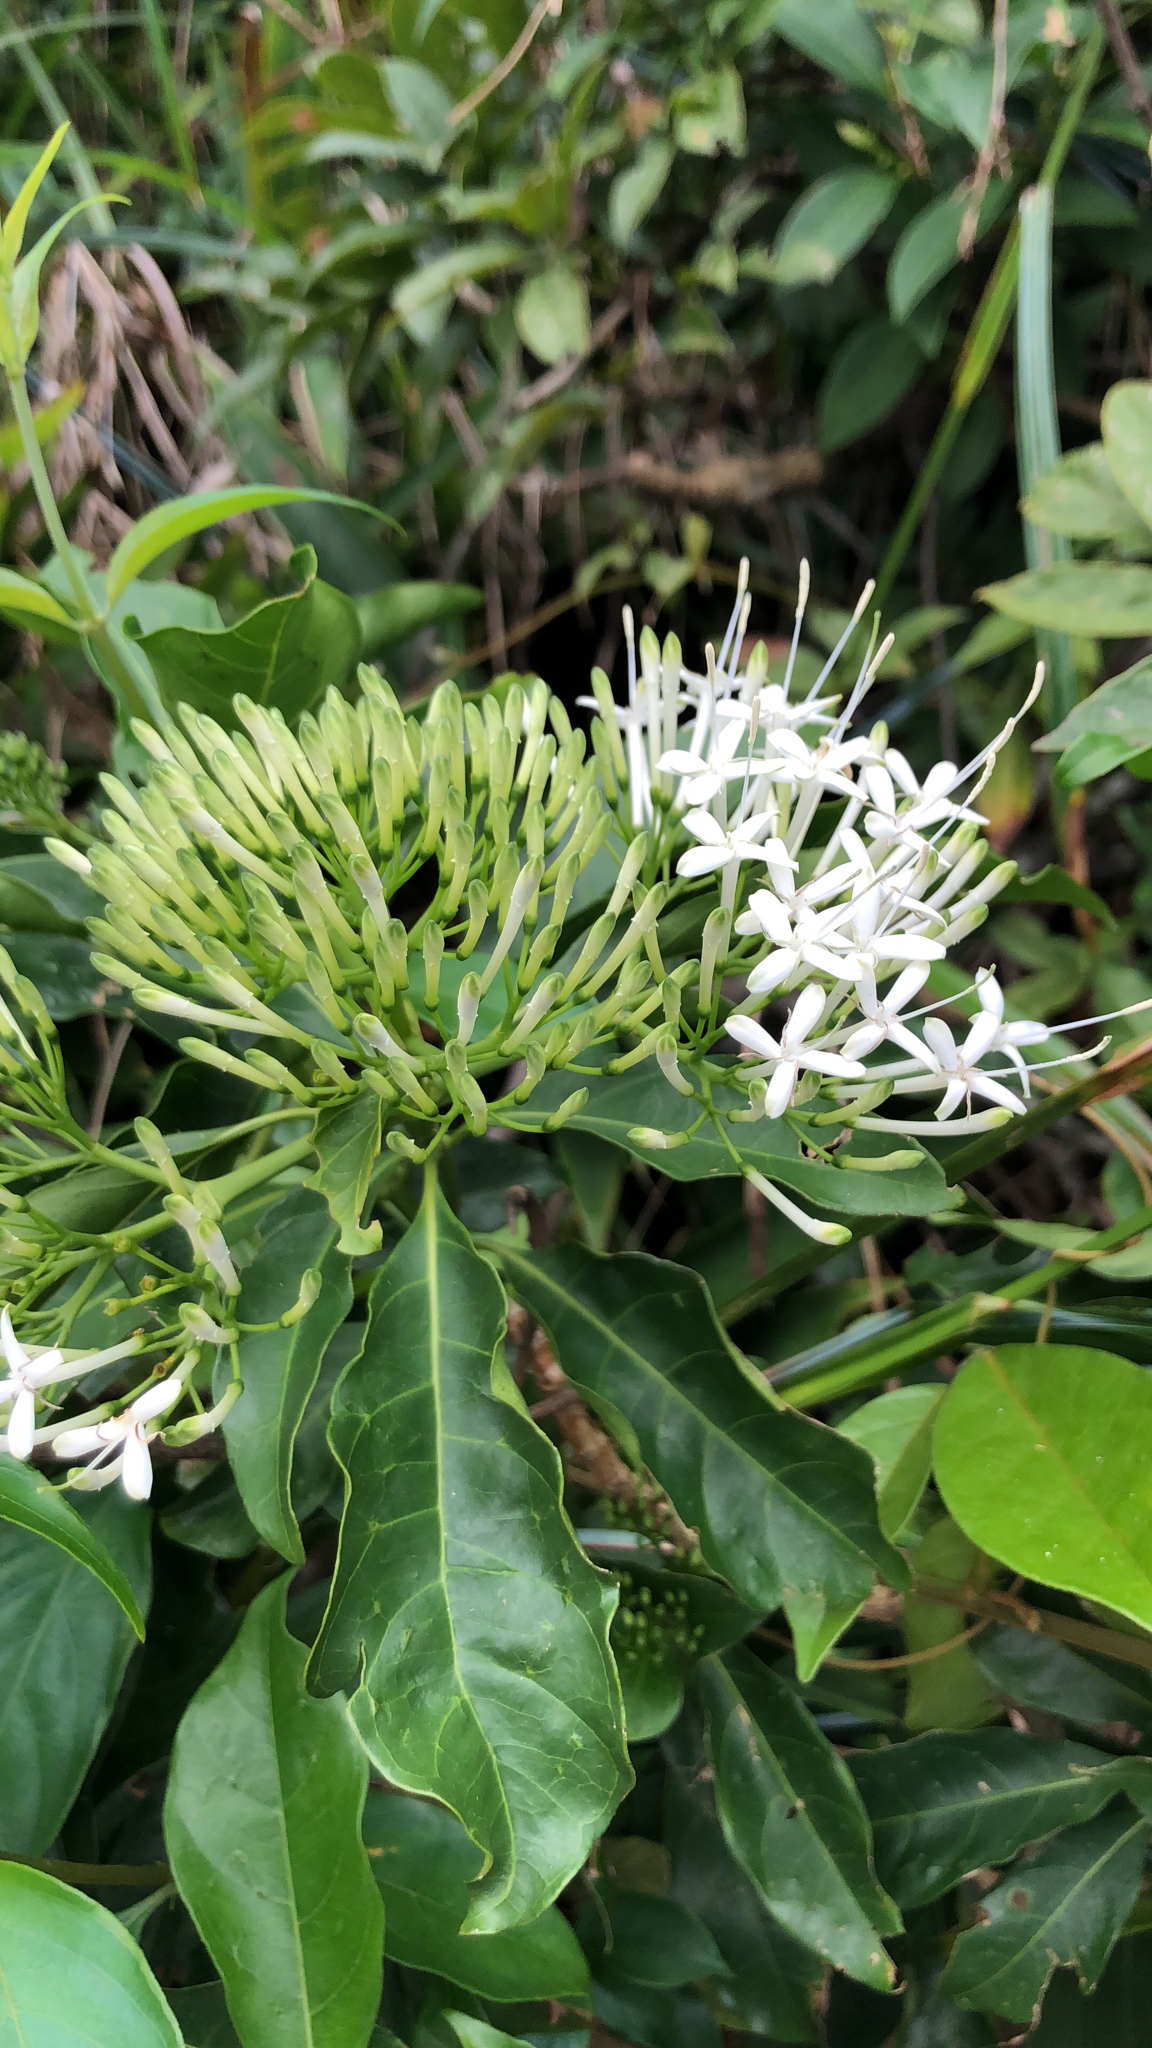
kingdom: Plantae
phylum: Tracheophyta
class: Magnoliopsida
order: Gentianales
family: Rubiaceae
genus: Pavetta
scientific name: Pavetta hongkongensis
